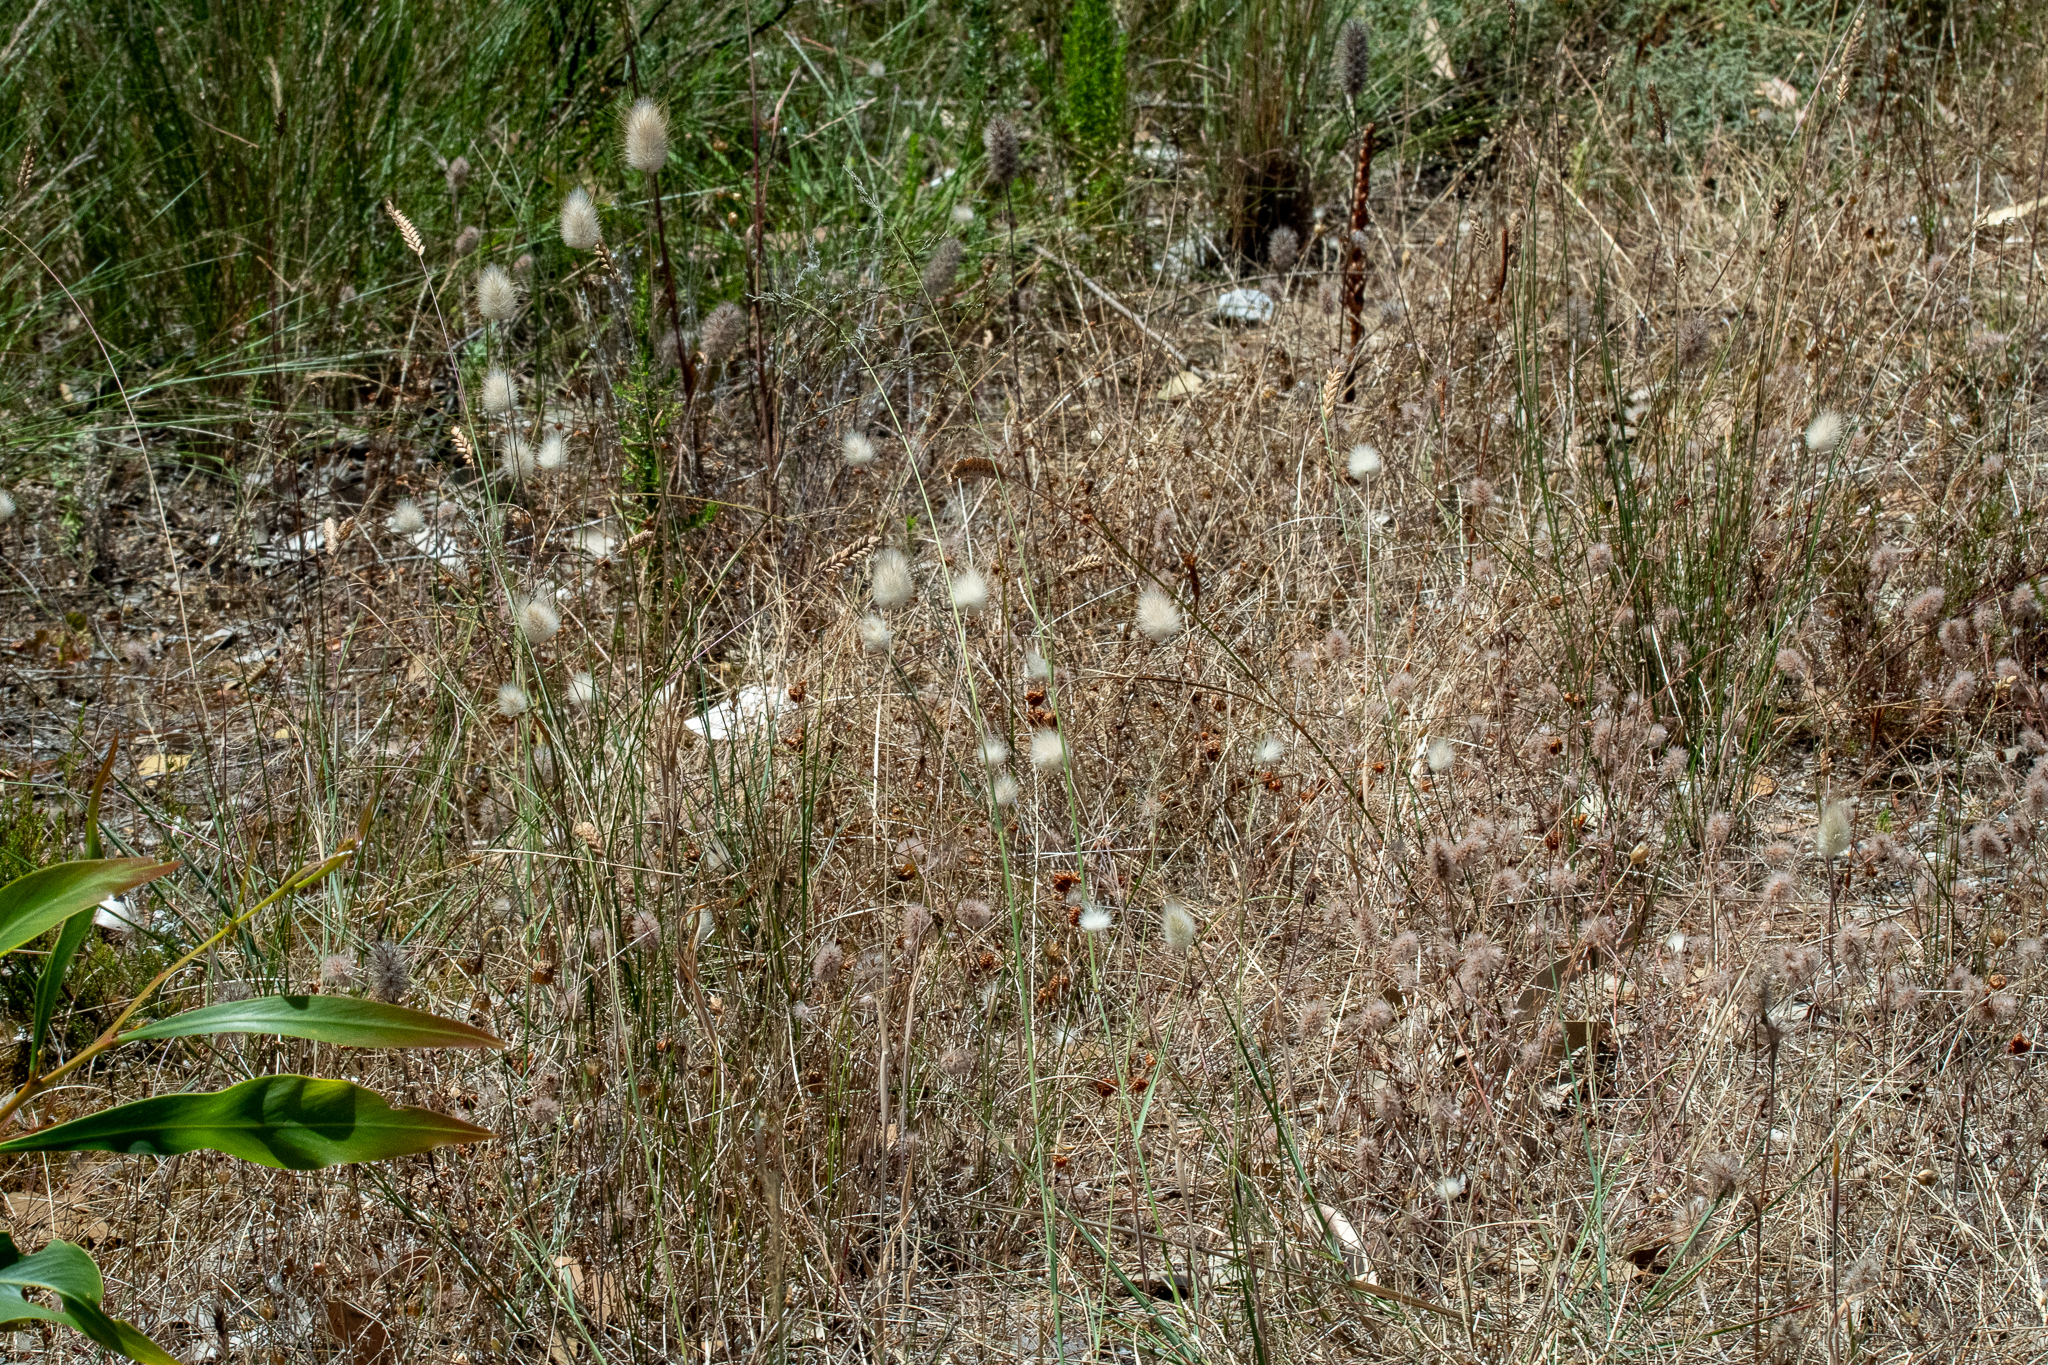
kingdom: Plantae
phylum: Tracheophyta
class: Liliopsida
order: Poales
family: Poaceae
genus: Lagurus
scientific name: Lagurus ovatus
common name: Hare's-tail
